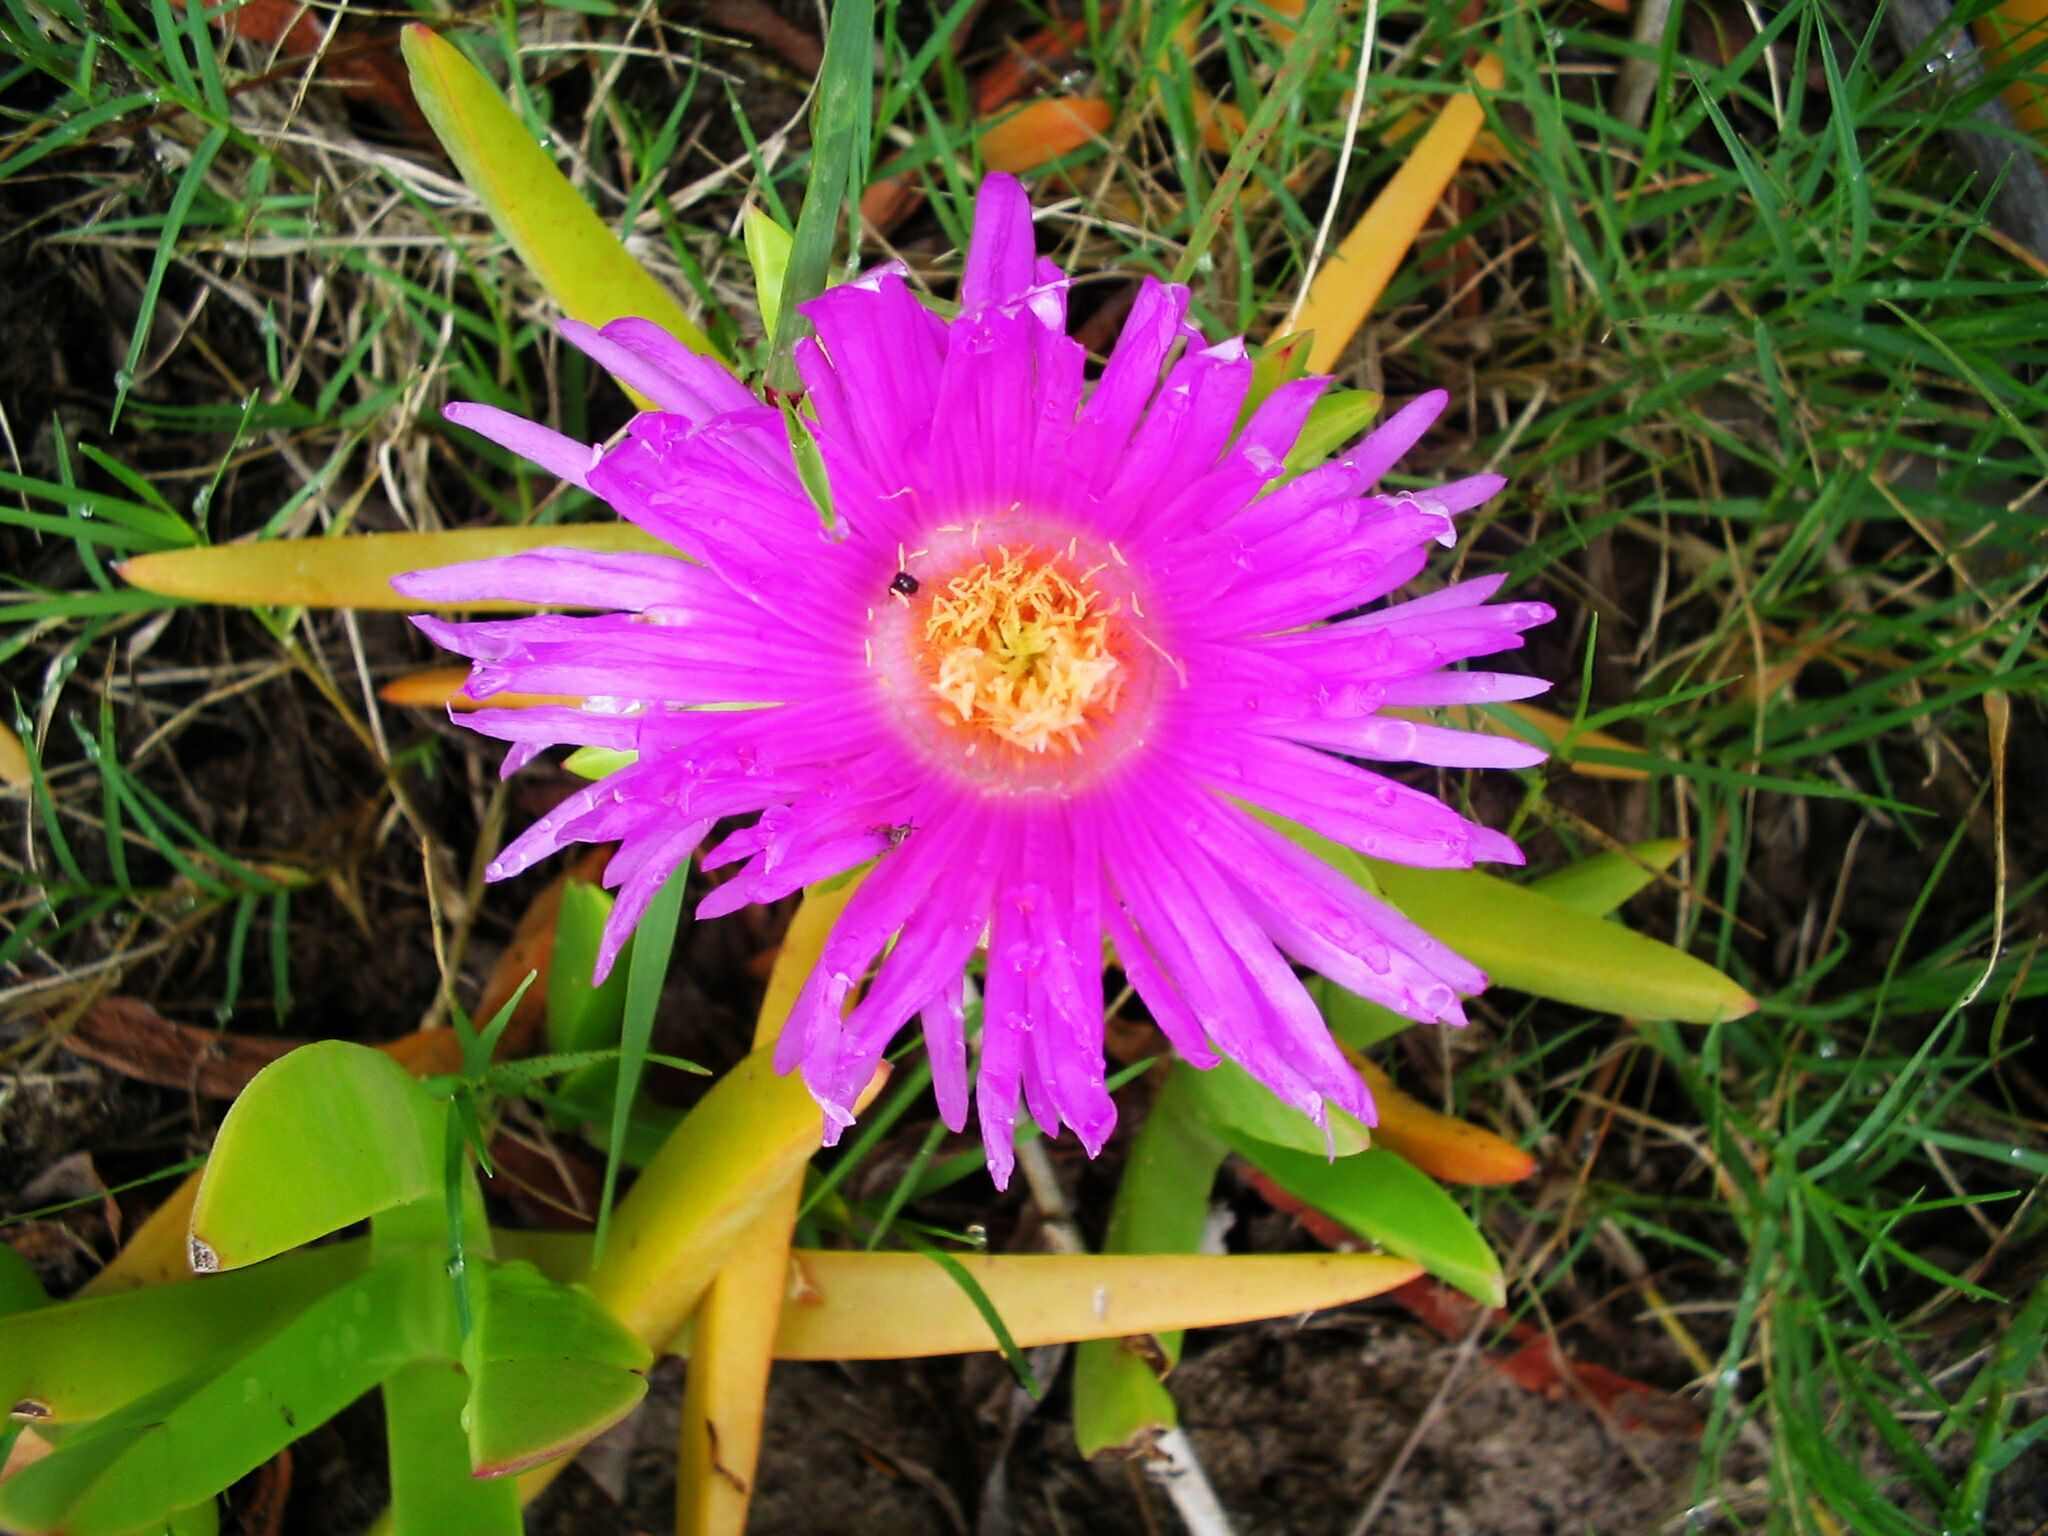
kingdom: Plantae
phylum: Tracheophyta
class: Magnoliopsida
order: Caryophyllales
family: Aizoaceae
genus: Carpobrotus
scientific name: Carpobrotus deliciosus
